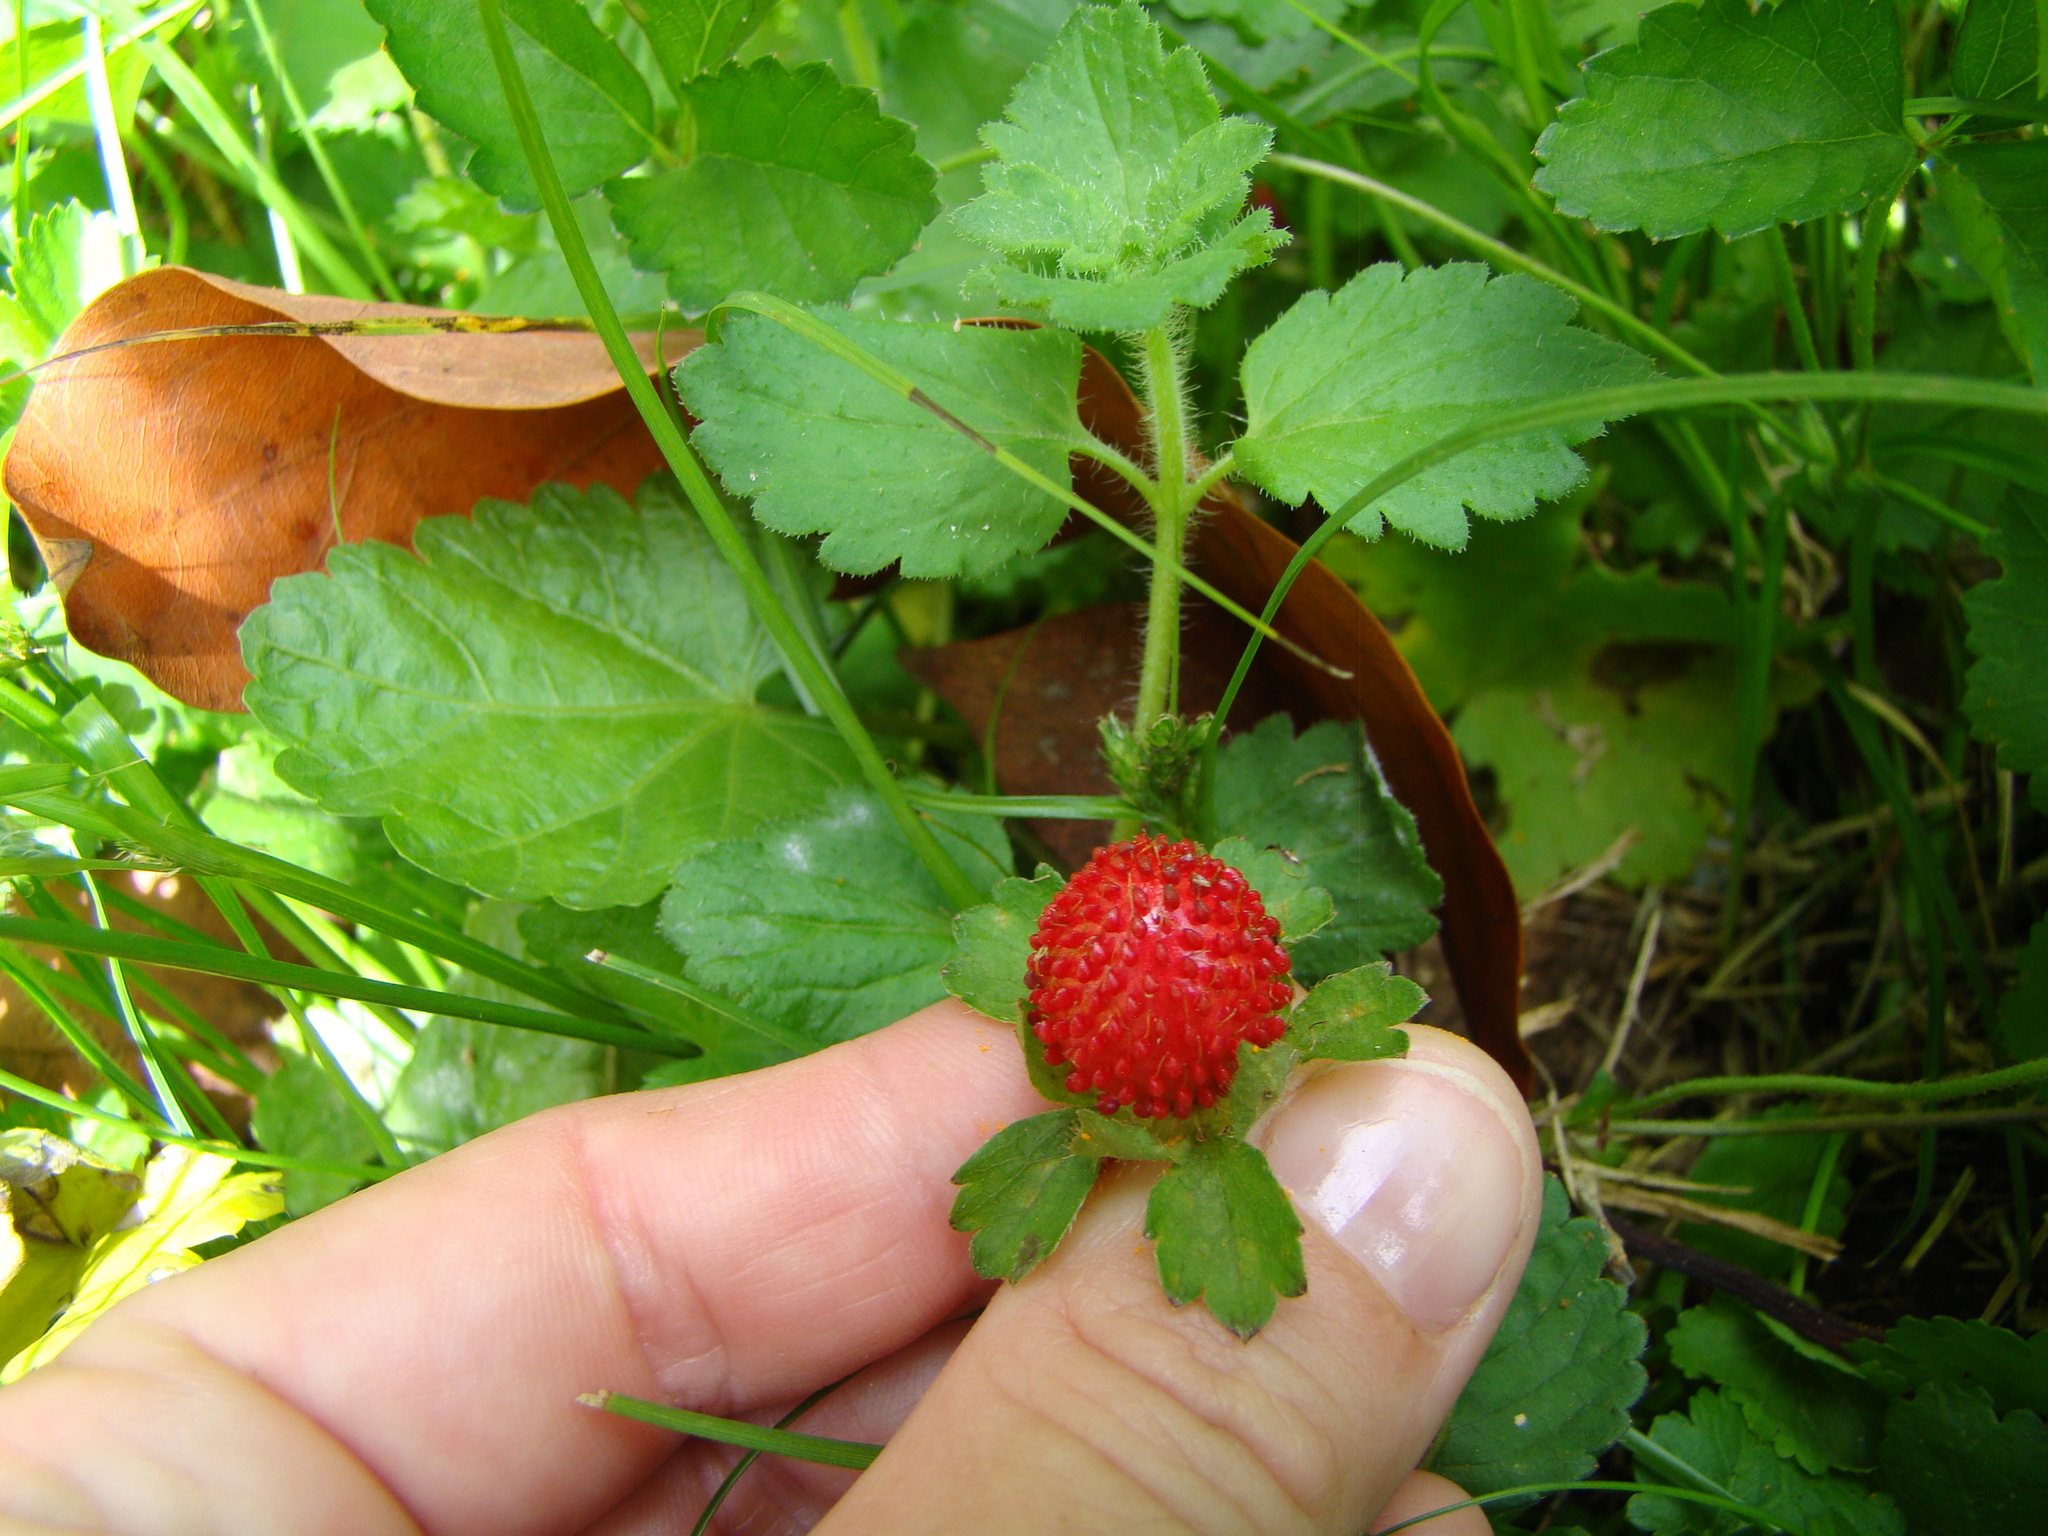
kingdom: Plantae
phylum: Tracheophyta
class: Magnoliopsida
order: Rosales
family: Rosaceae
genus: Potentilla
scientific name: Potentilla indica
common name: Yellow-flowered strawberry
